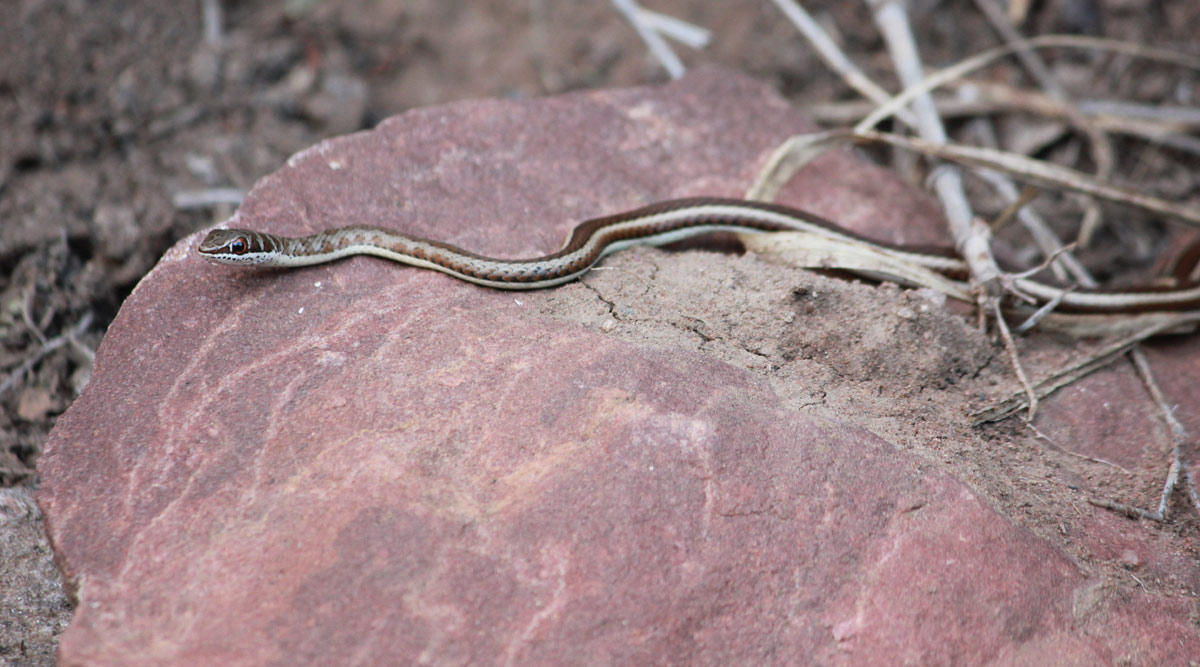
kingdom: Animalia
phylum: Chordata
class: Squamata
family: Psammophiidae
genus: Psammophis
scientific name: Psammophis subtaeniatus
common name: Stripe-bellied sand snake
